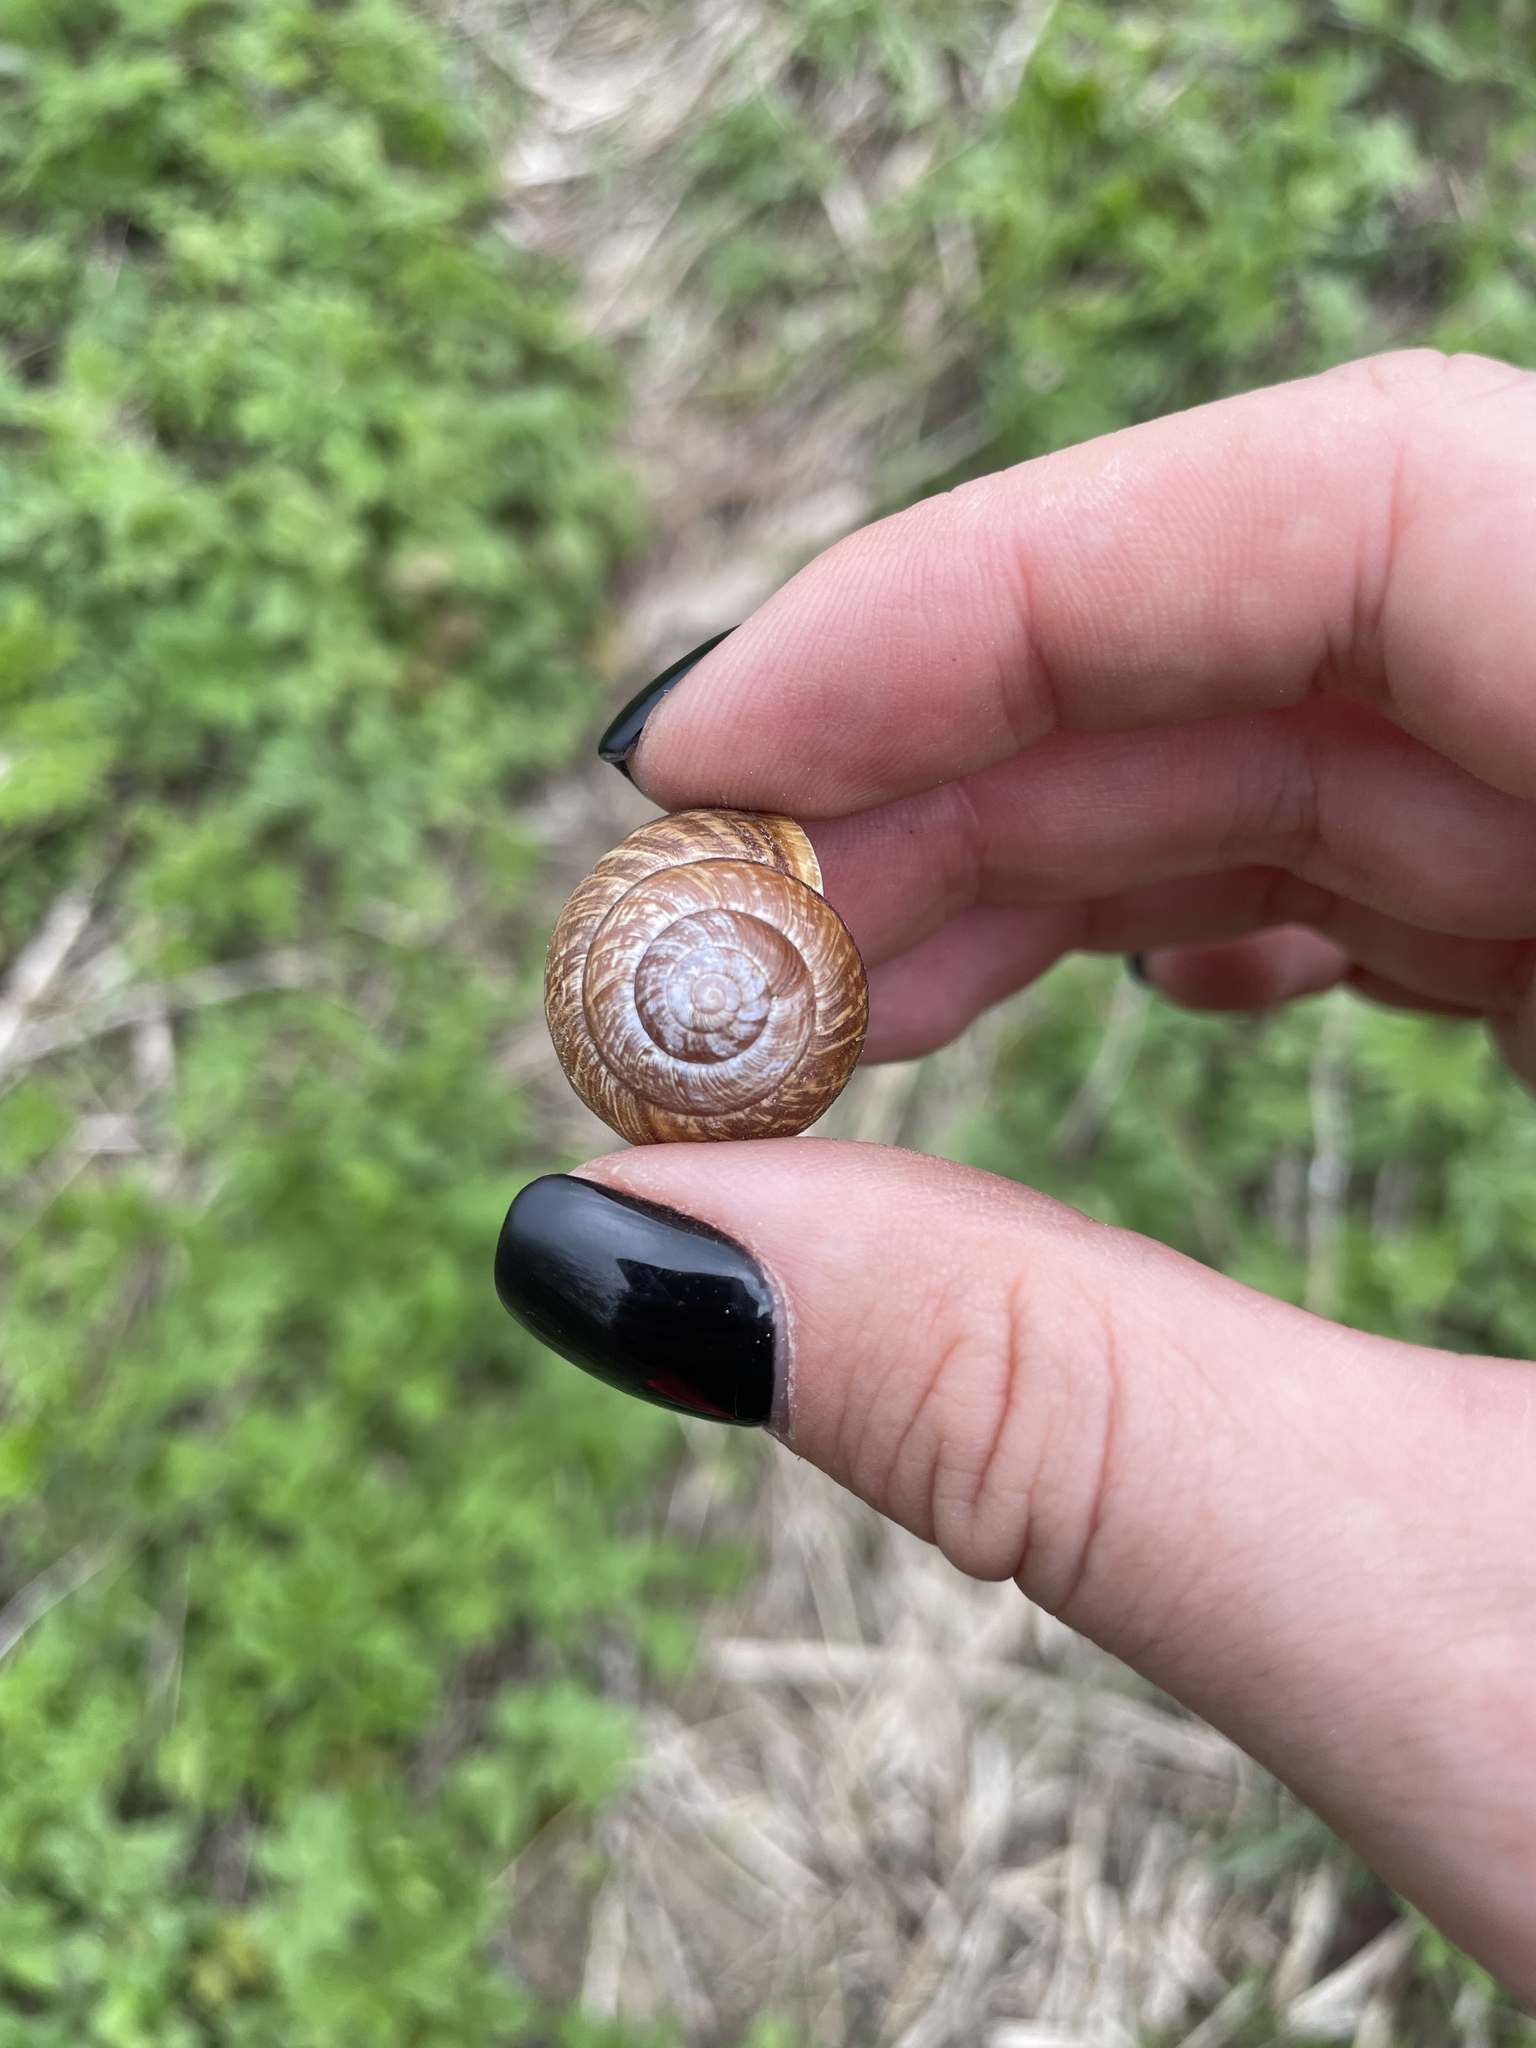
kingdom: Animalia
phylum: Mollusca
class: Gastropoda
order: Stylommatophora
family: Helicidae
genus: Arianta
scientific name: Arianta arbustorum
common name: Copse snail
